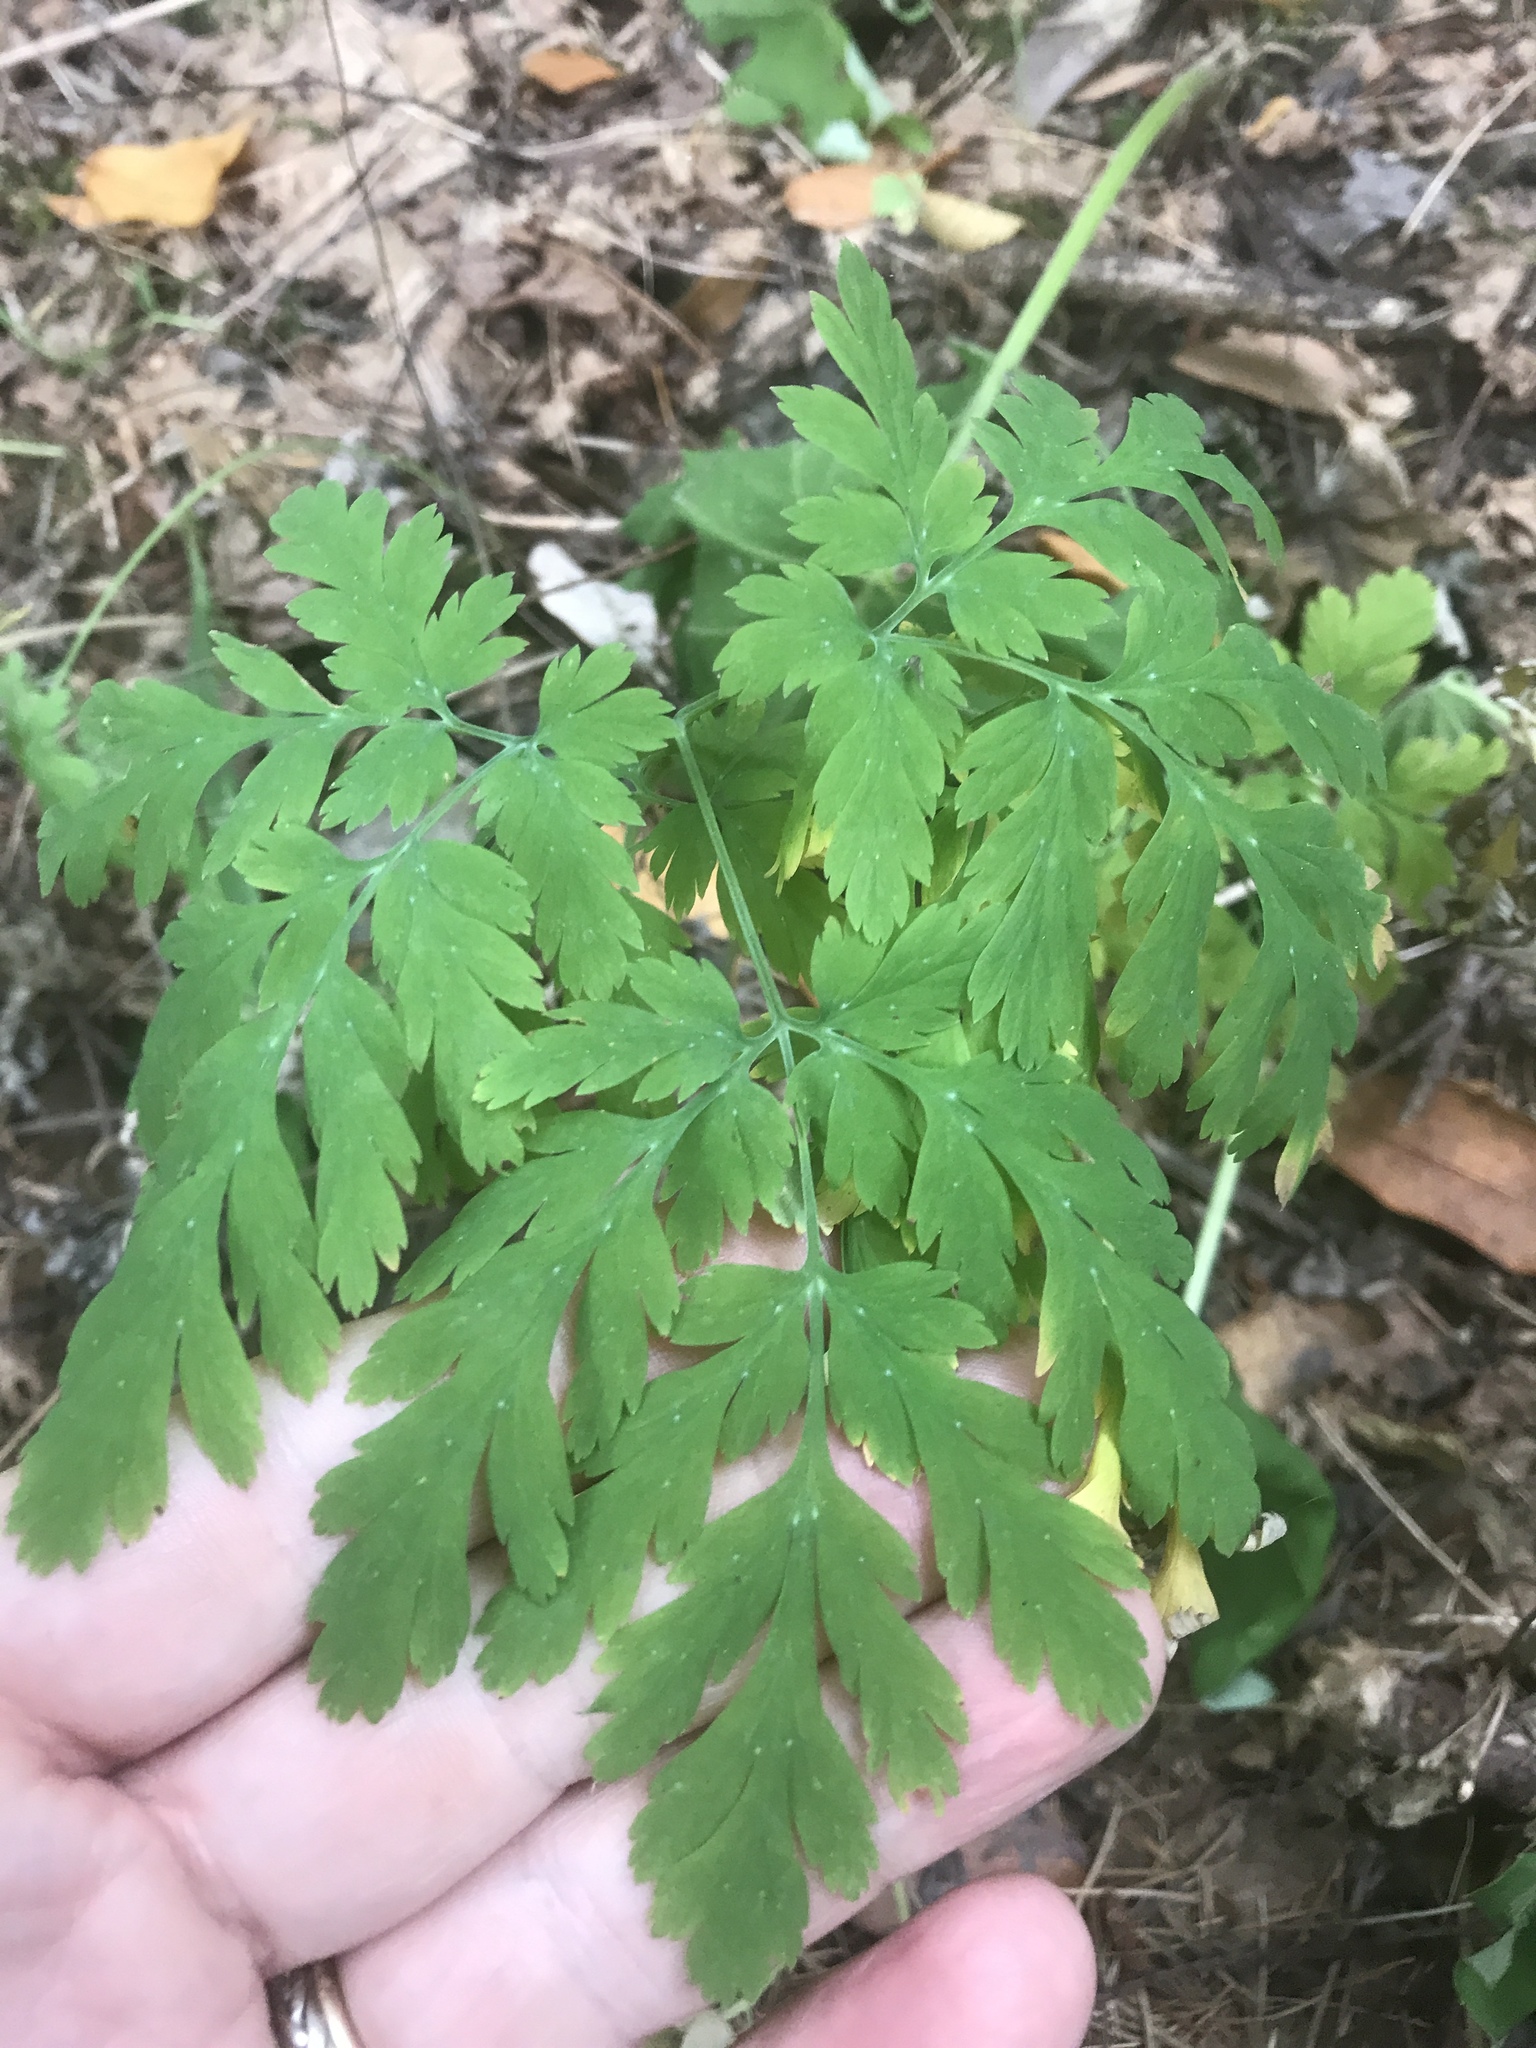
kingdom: Plantae
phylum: Tracheophyta
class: Magnoliopsida
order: Ranunculales
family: Papaveraceae
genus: Dicentra
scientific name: Dicentra formosa
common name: Bleeding-heart
